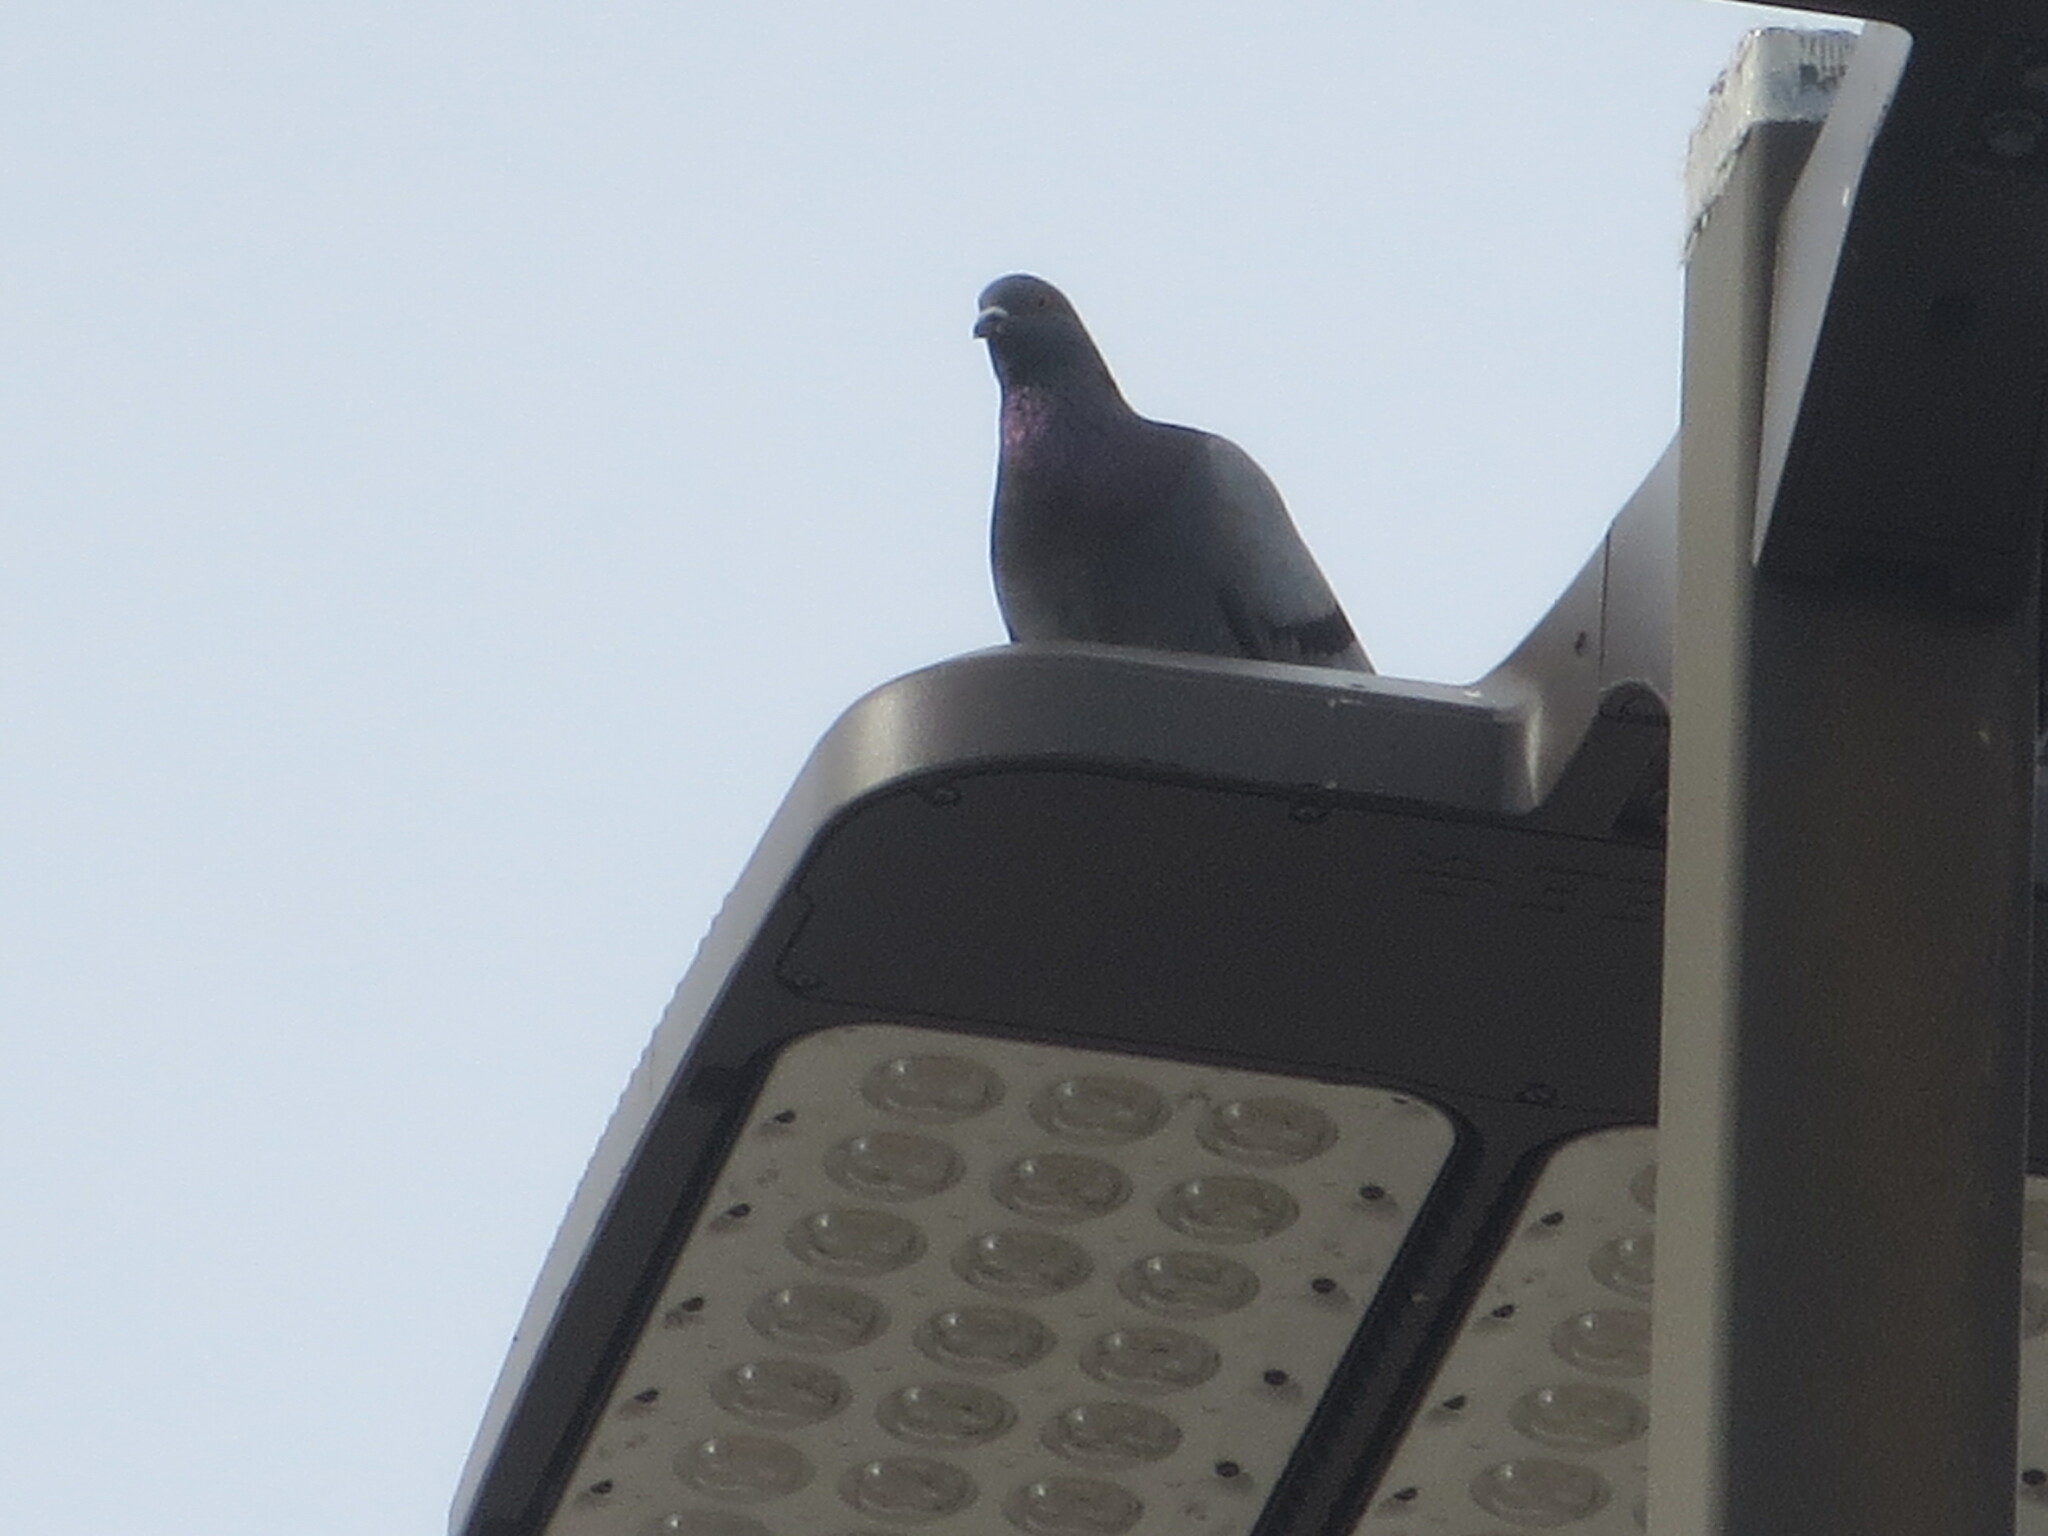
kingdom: Animalia
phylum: Chordata
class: Aves
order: Columbiformes
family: Columbidae
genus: Columba
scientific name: Columba livia
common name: Rock pigeon
